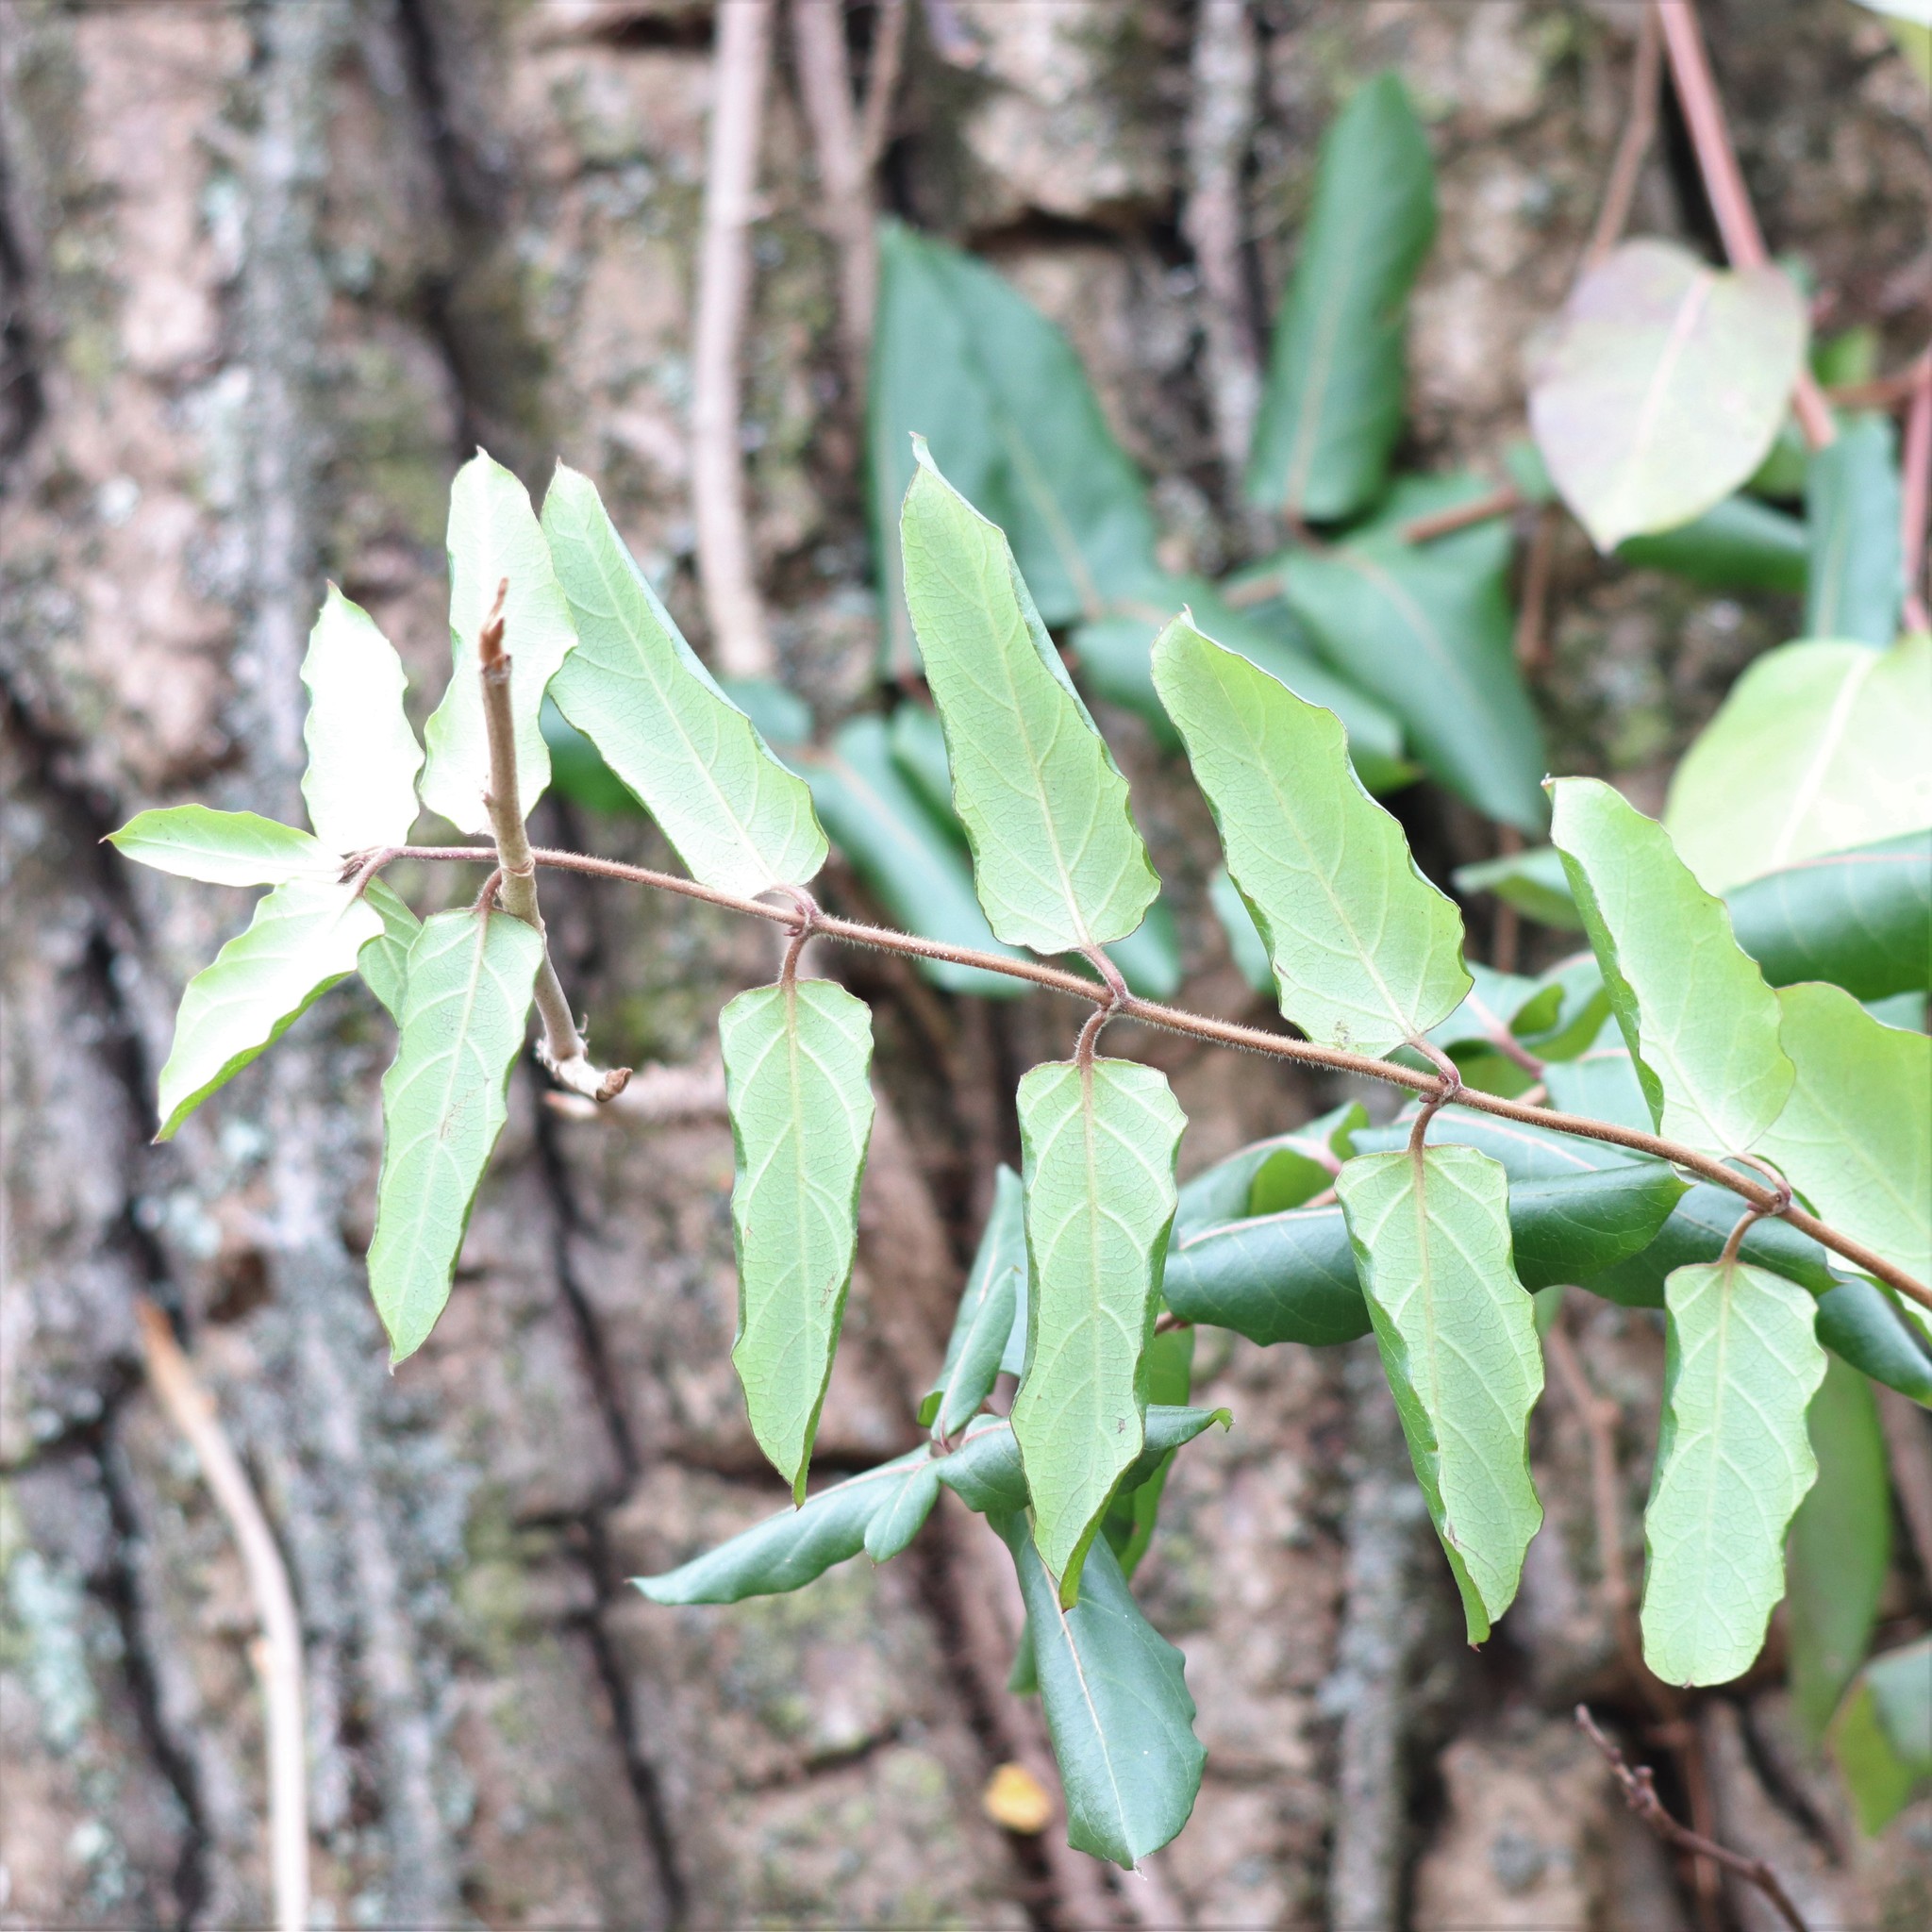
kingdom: Plantae
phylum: Tracheophyta
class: Magnoliopsida
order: Dipsacales
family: Caprifoliaceae
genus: Lonicera
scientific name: Lonicera japonica
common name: Japanese honeysuckle
